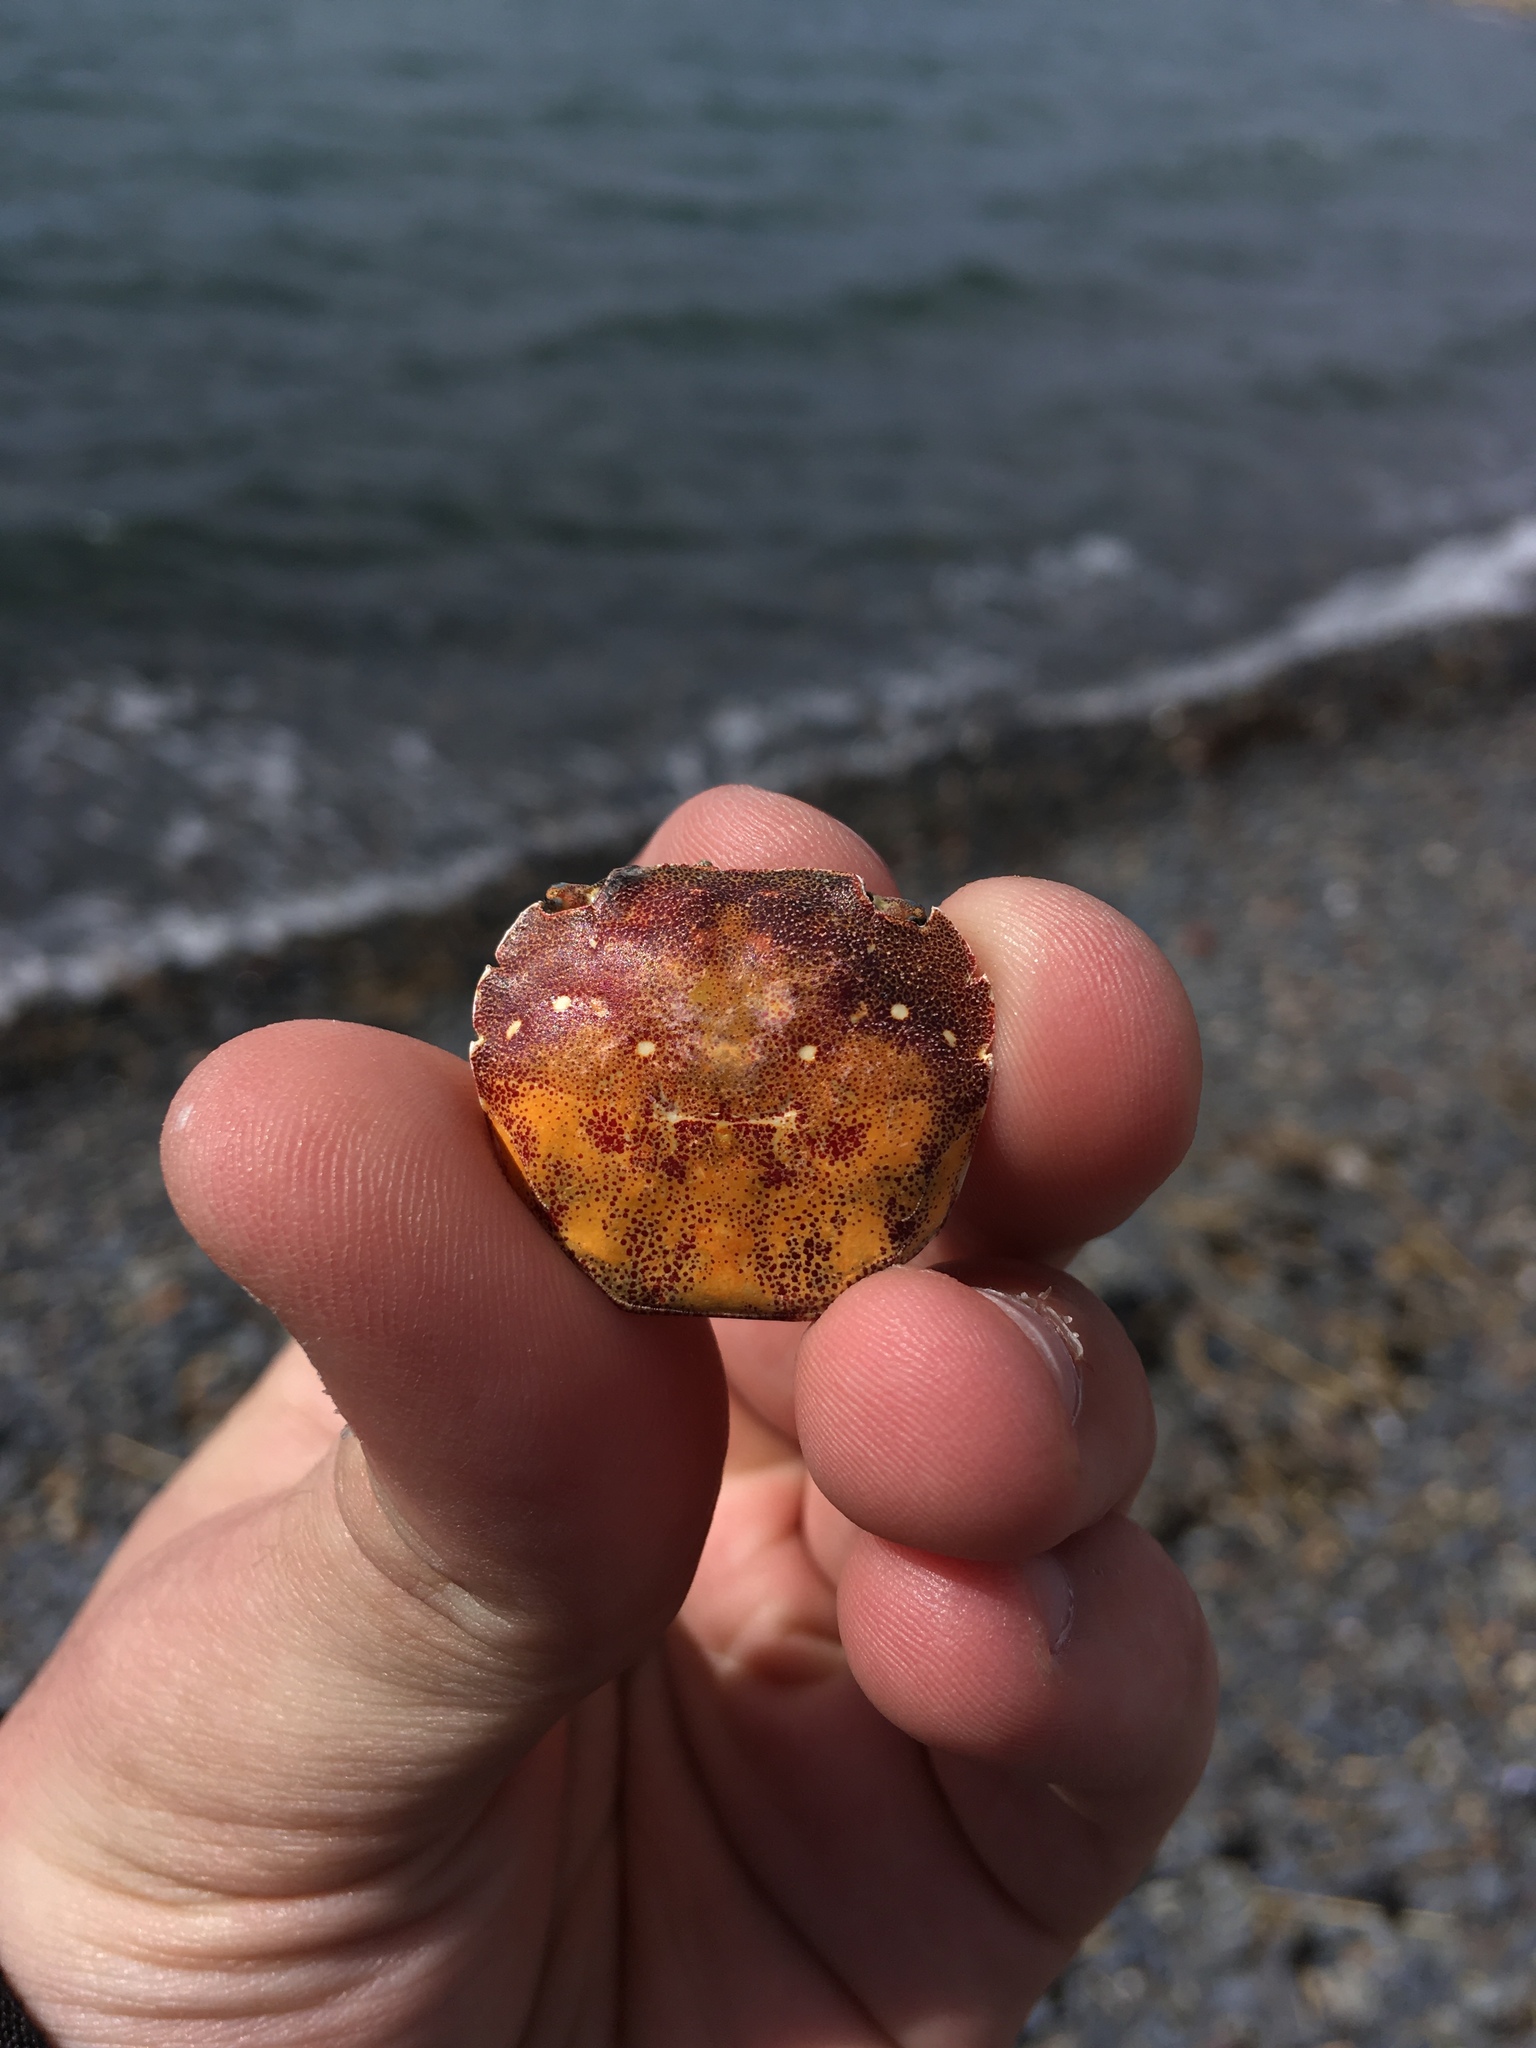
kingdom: Animalia
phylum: Arthropoda
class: Malacostraca
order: Decapoda
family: Varunidae
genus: Hemigrapsus
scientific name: Hemigrapsus sanguineus
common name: Asian shore crab
